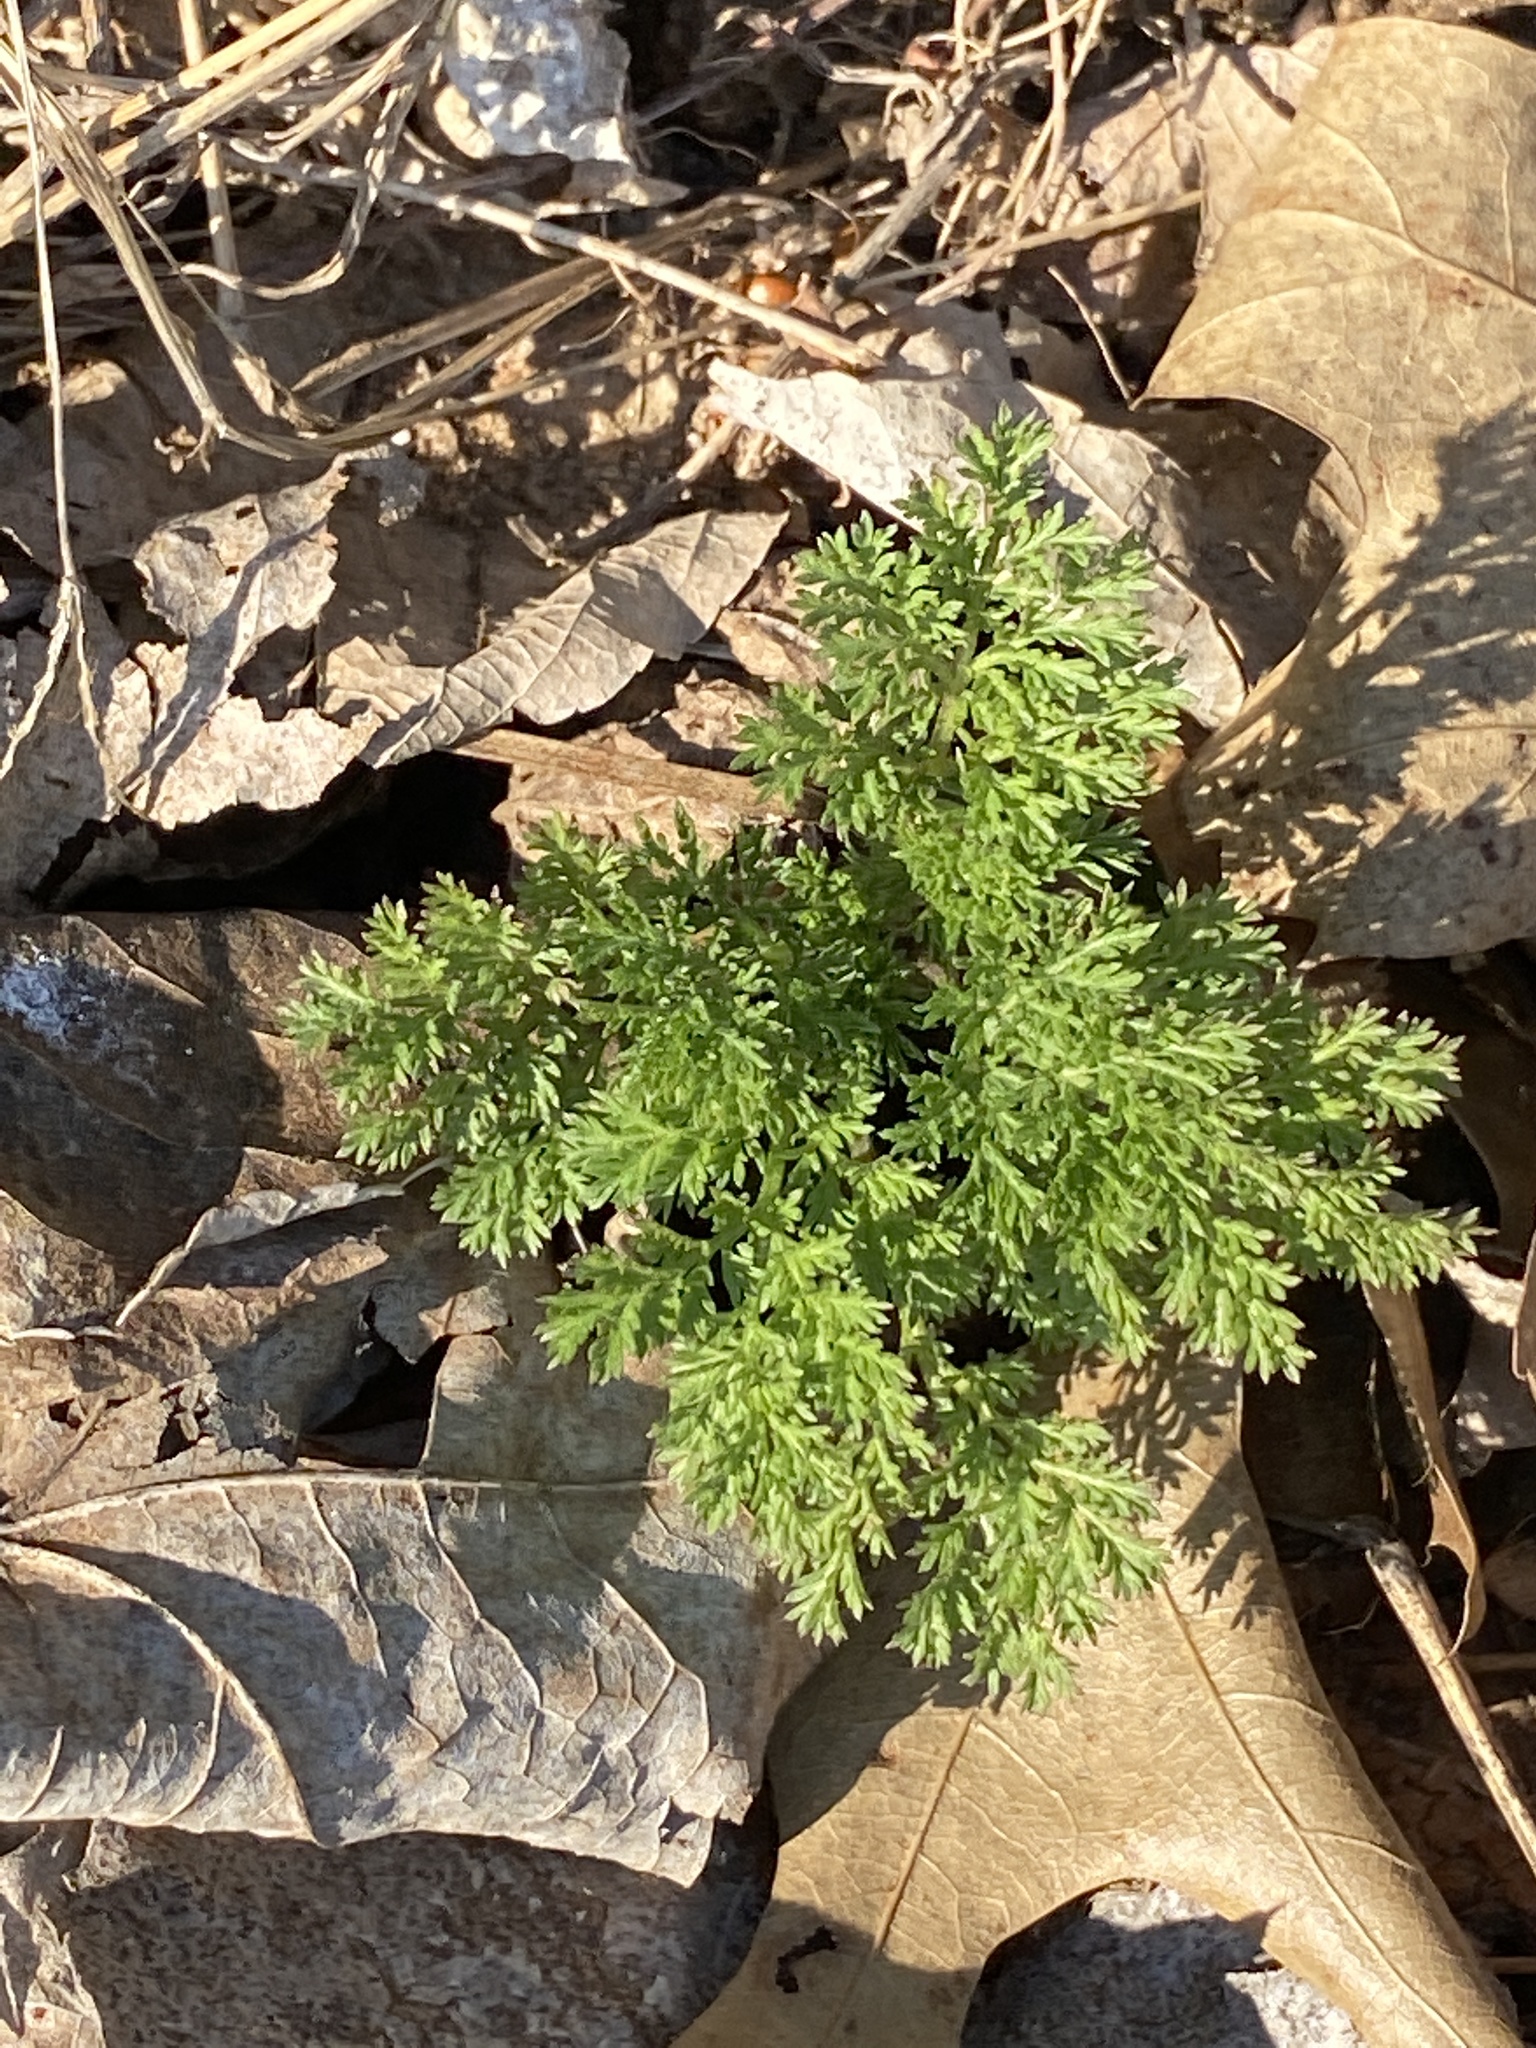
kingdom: Plantae
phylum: Tracheophyta
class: Magnoliopsida
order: Asterales
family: Asteraceae
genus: Artemisia
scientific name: Artemisia annua
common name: Sweet sagewort
